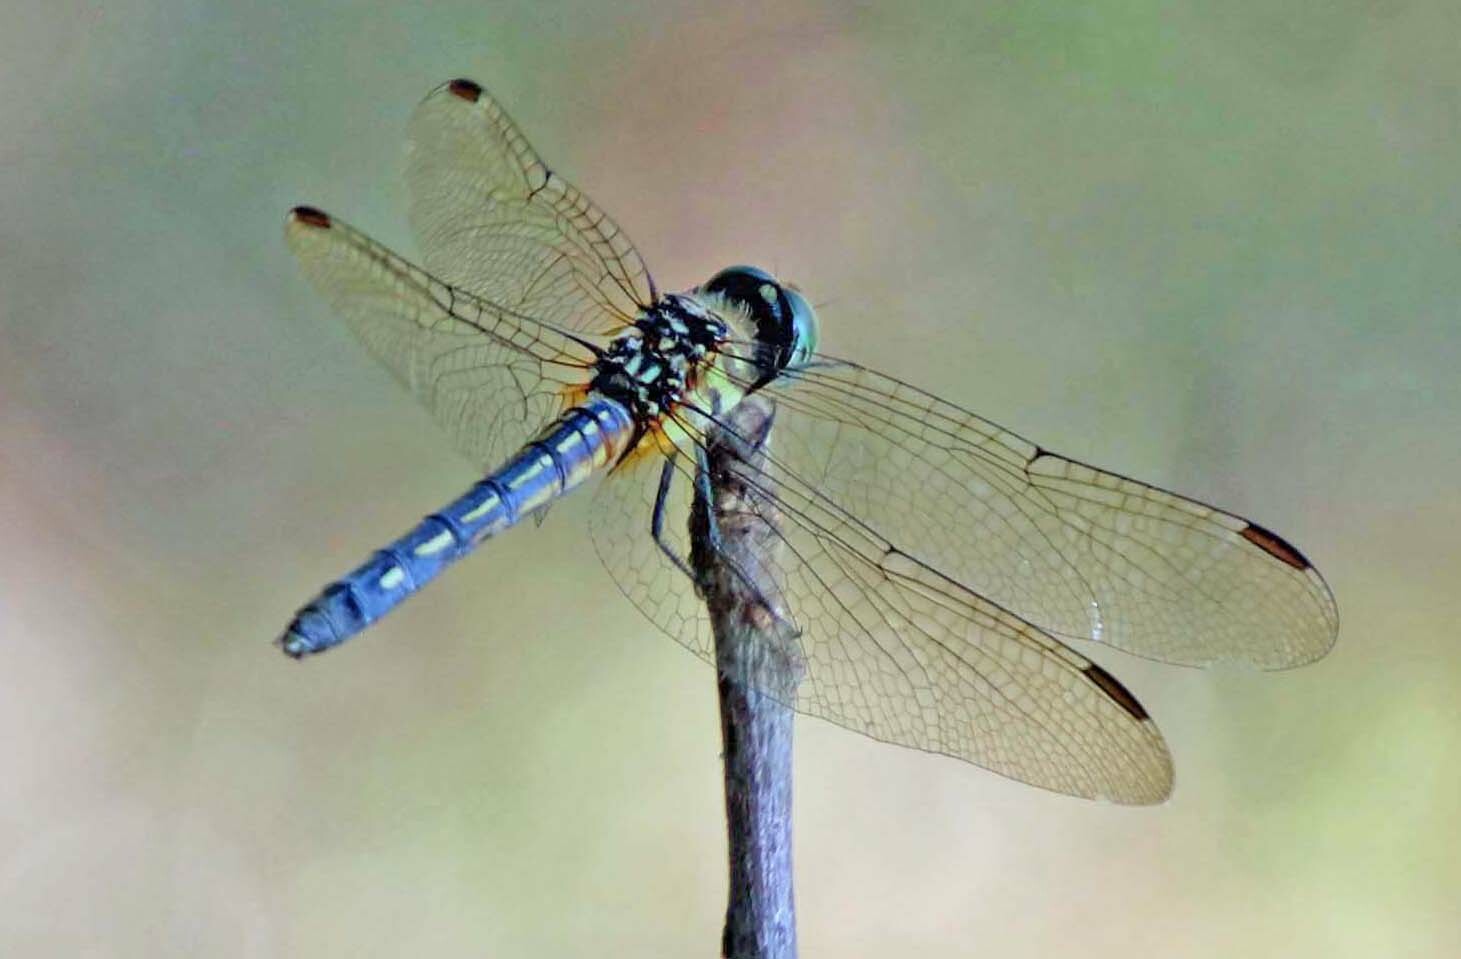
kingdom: Animalia
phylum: Arthropoda
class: Insecta
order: Odonata
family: Libellulidae
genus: Pachydiplax
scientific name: Pachydiplax longipennis
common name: Blue dasher
